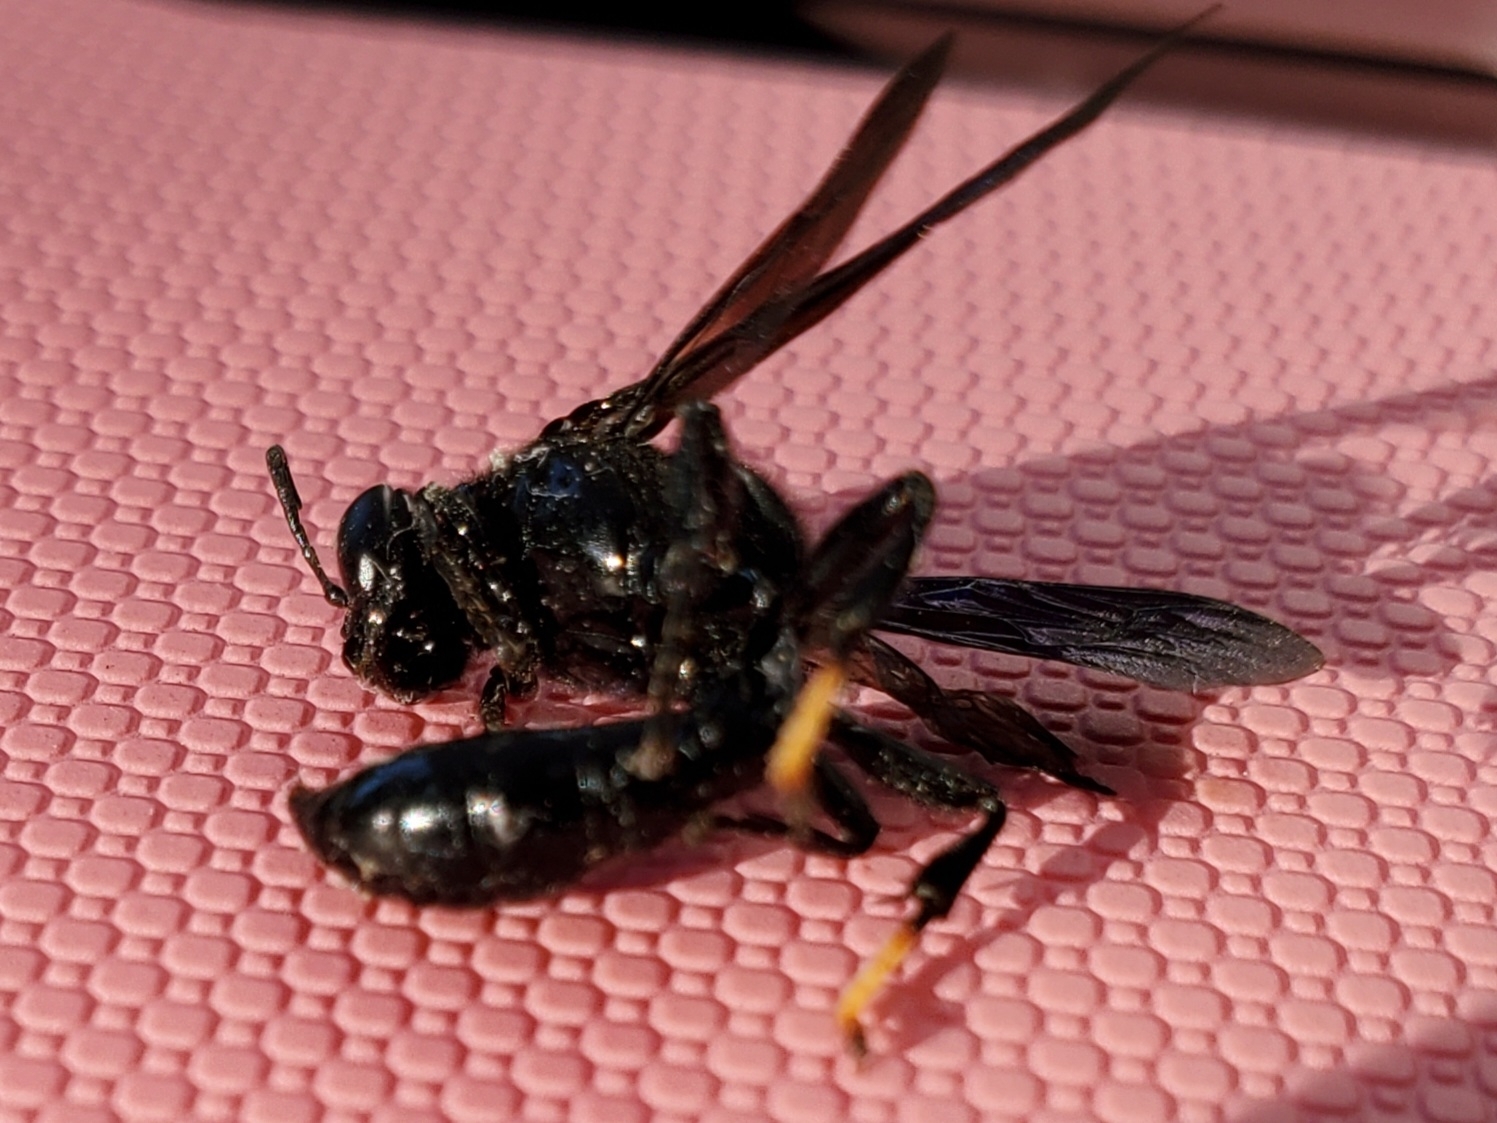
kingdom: Animalia
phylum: Arthropoda
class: Insecta
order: Hymenoptera
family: Crabronidae
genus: Trypoxylon
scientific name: Trypoxylon politum
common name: Organ-pipe mud-dauber wasp
